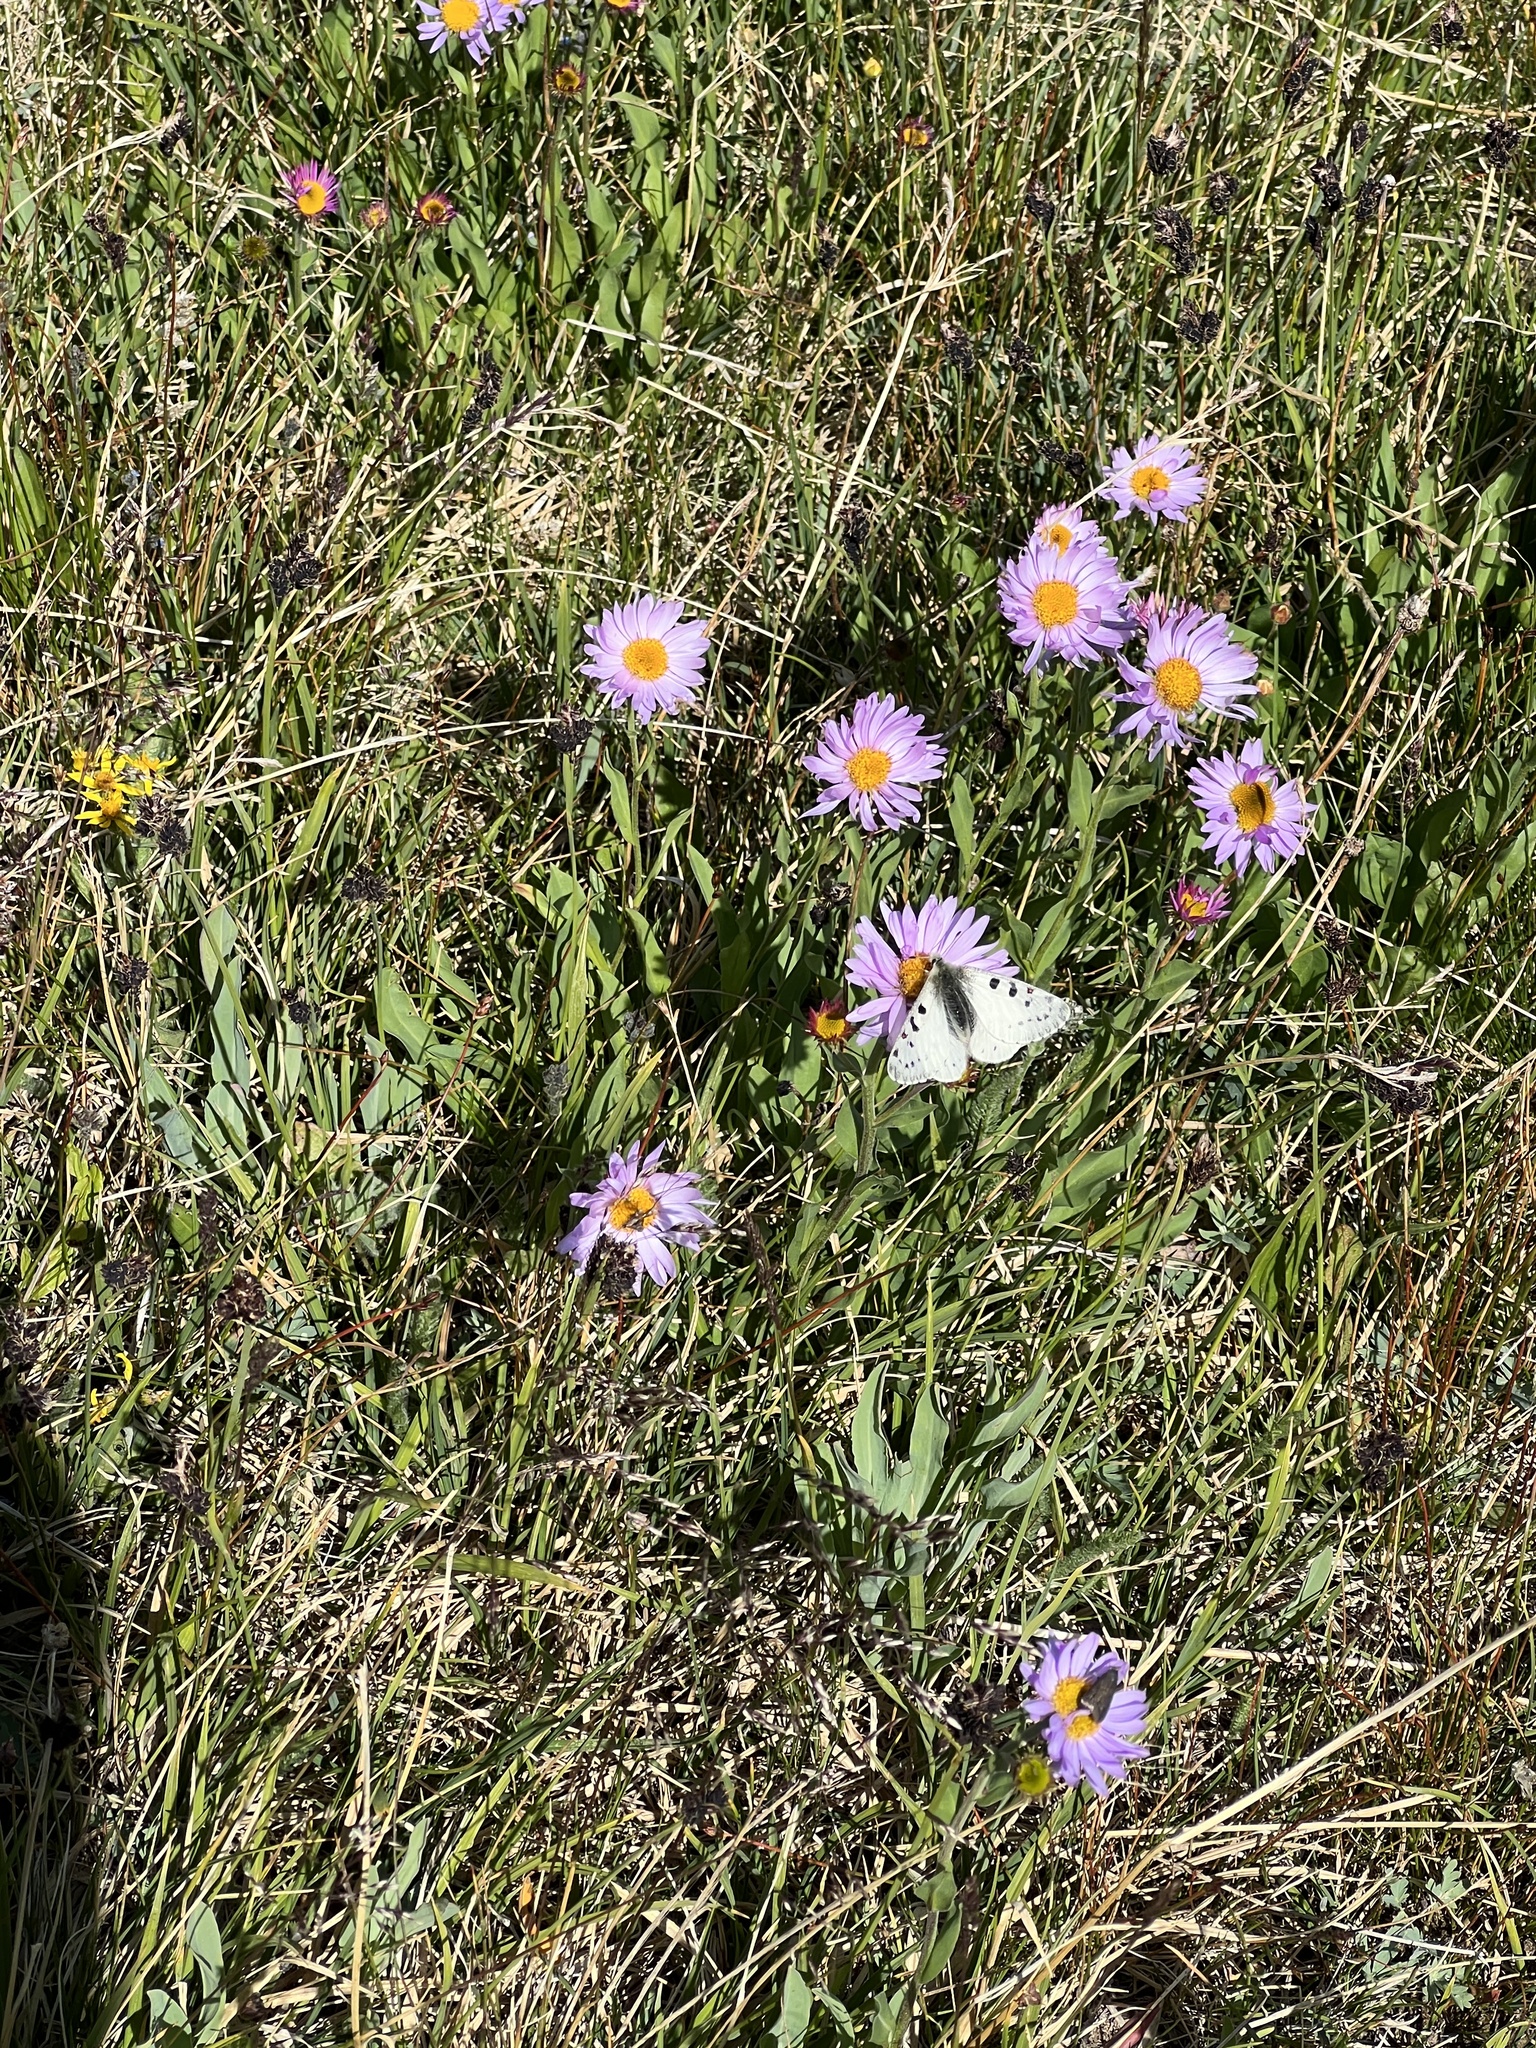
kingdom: Animalia
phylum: Arthropoda
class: Insecta
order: Lepidoptera
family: Papilionidae
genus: Parnassius
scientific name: Parnassius smintheus
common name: Mountain parnassian
